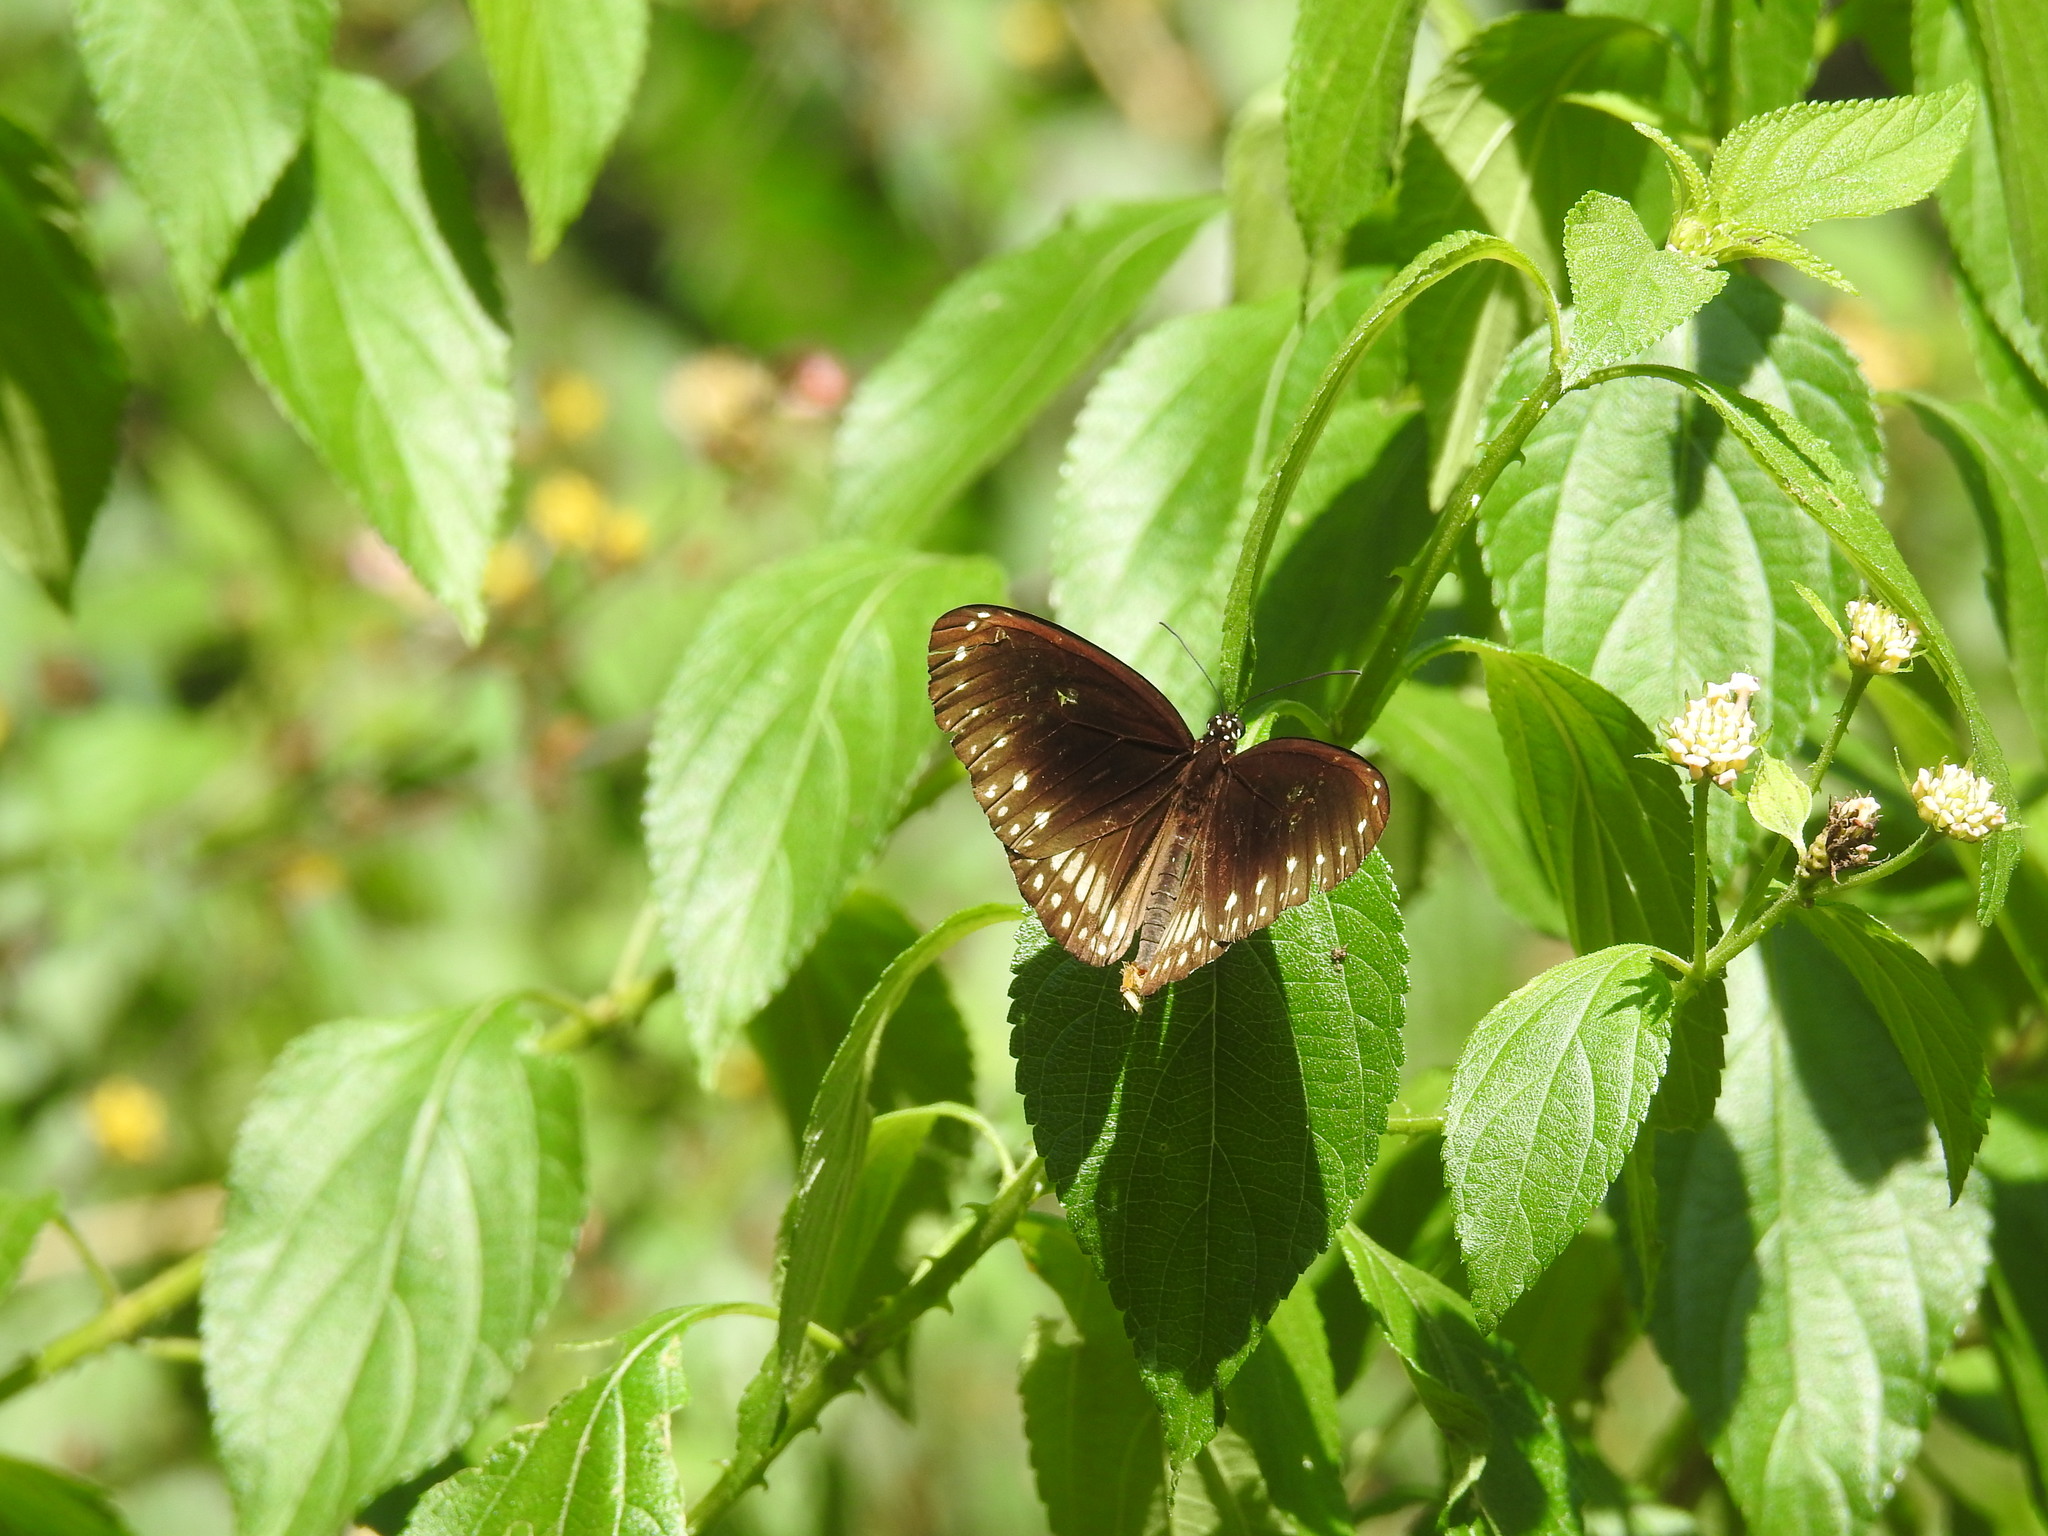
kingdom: Animalia
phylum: Arthropoda
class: Insecta
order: Lepidoptera
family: Nymphalidae
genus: Euploea
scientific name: Euploea core
